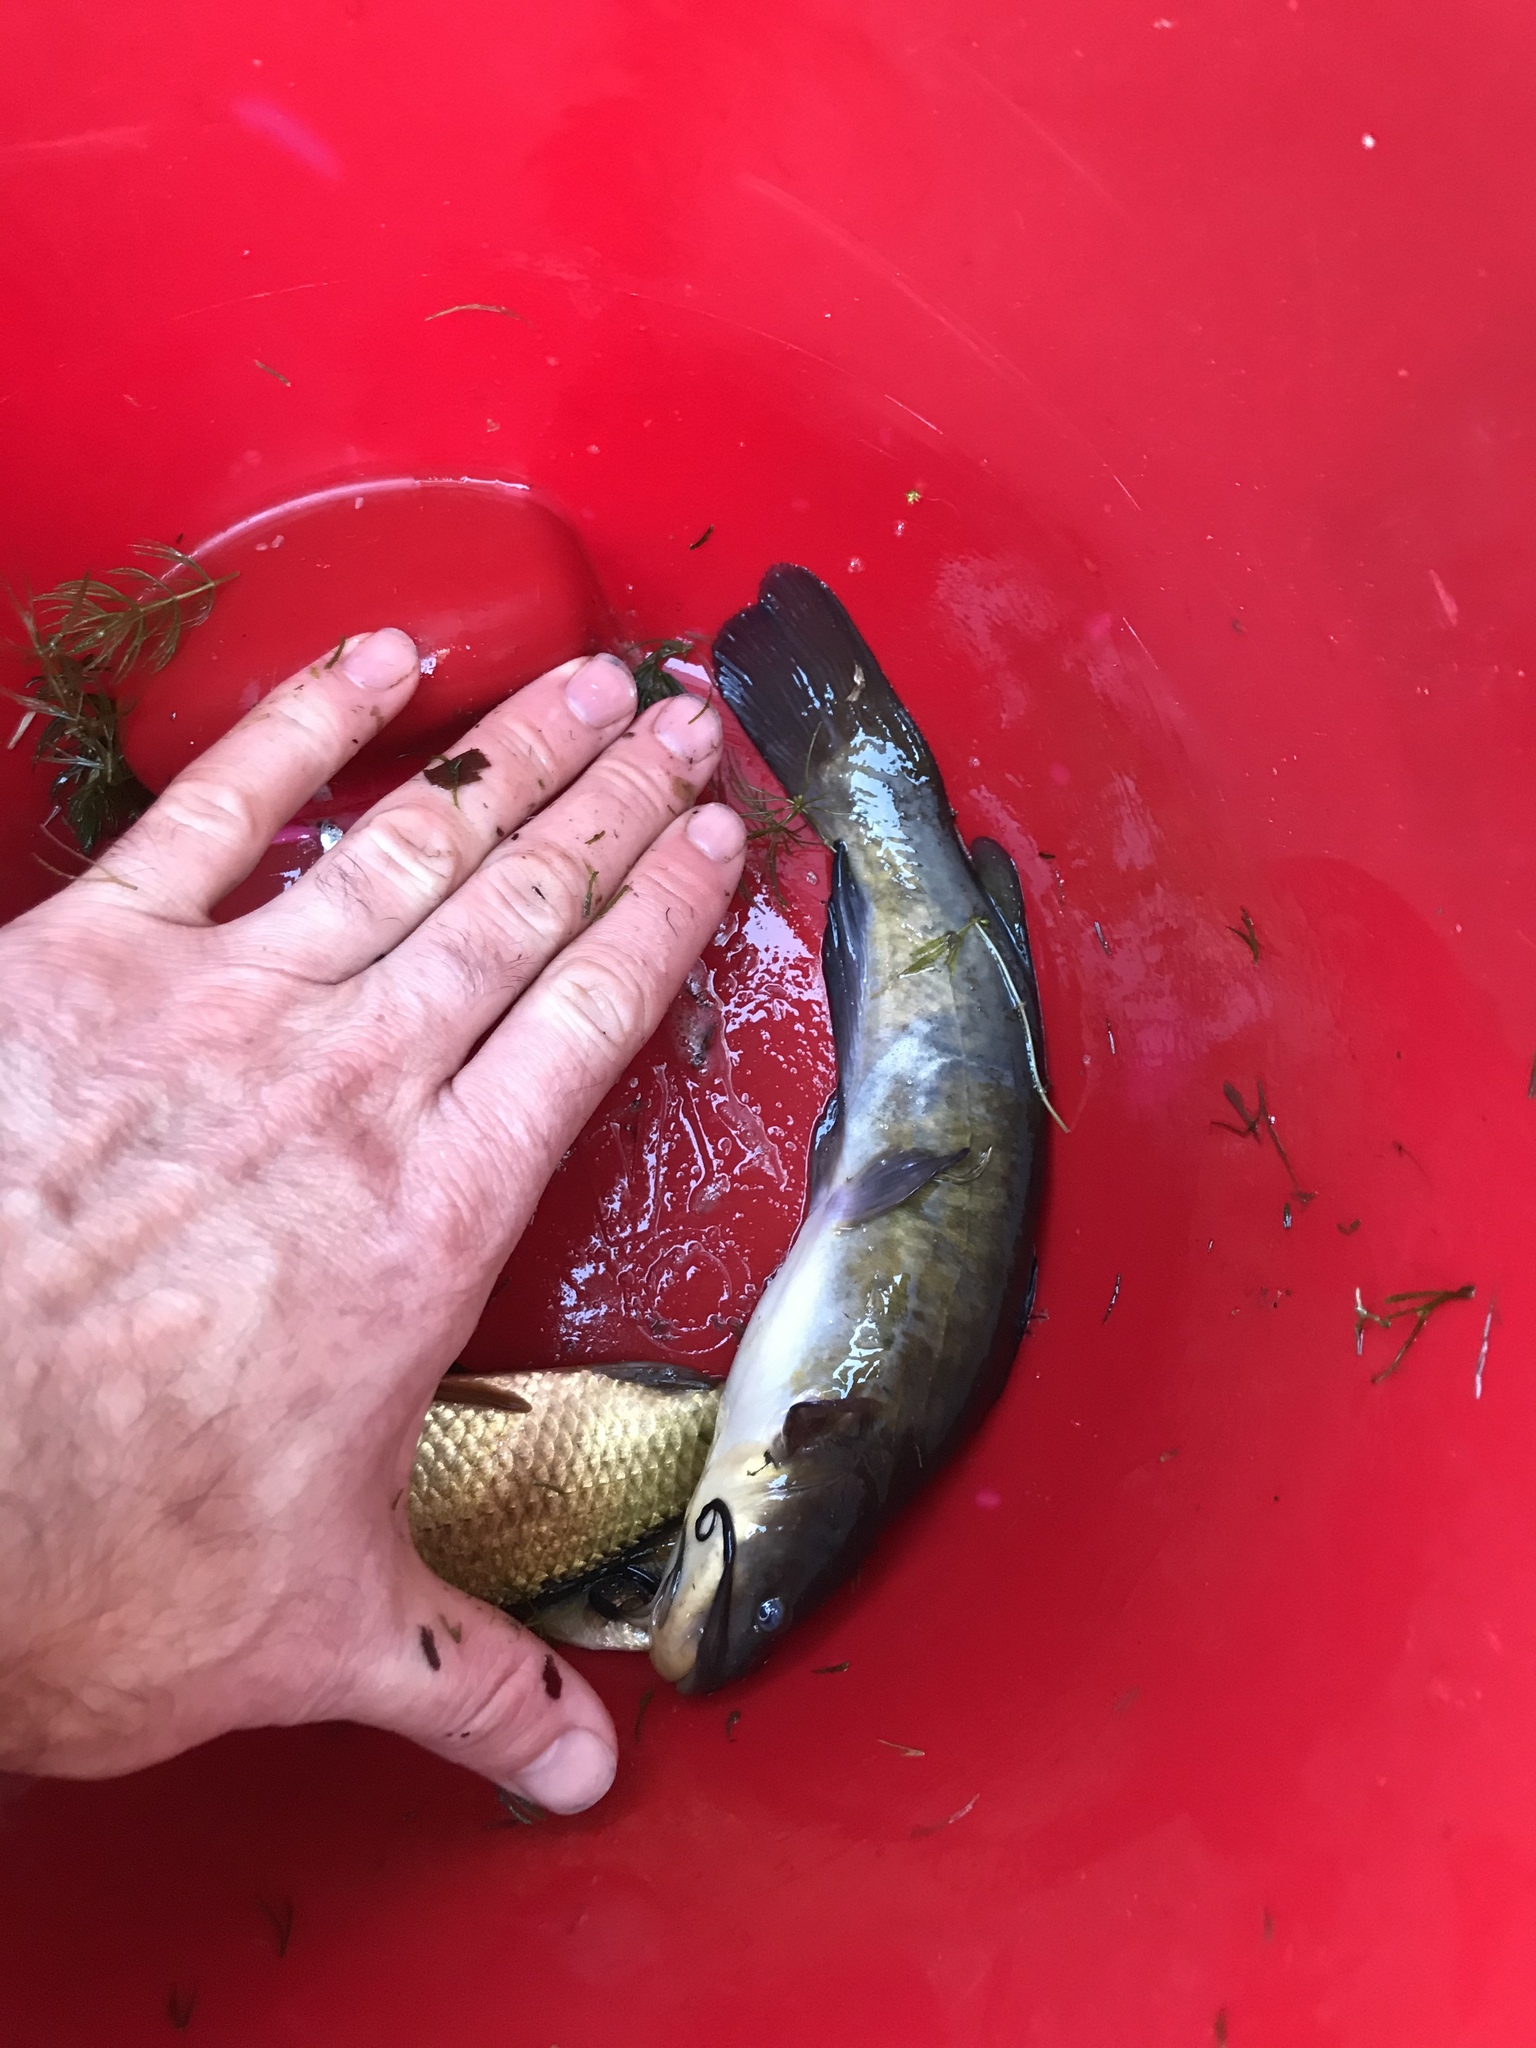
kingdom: Animalia
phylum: Chordata
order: Siluriformes
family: Ictaluridae
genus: Ameiurus
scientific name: Ameiurus nebulosus
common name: Brown bullhead
